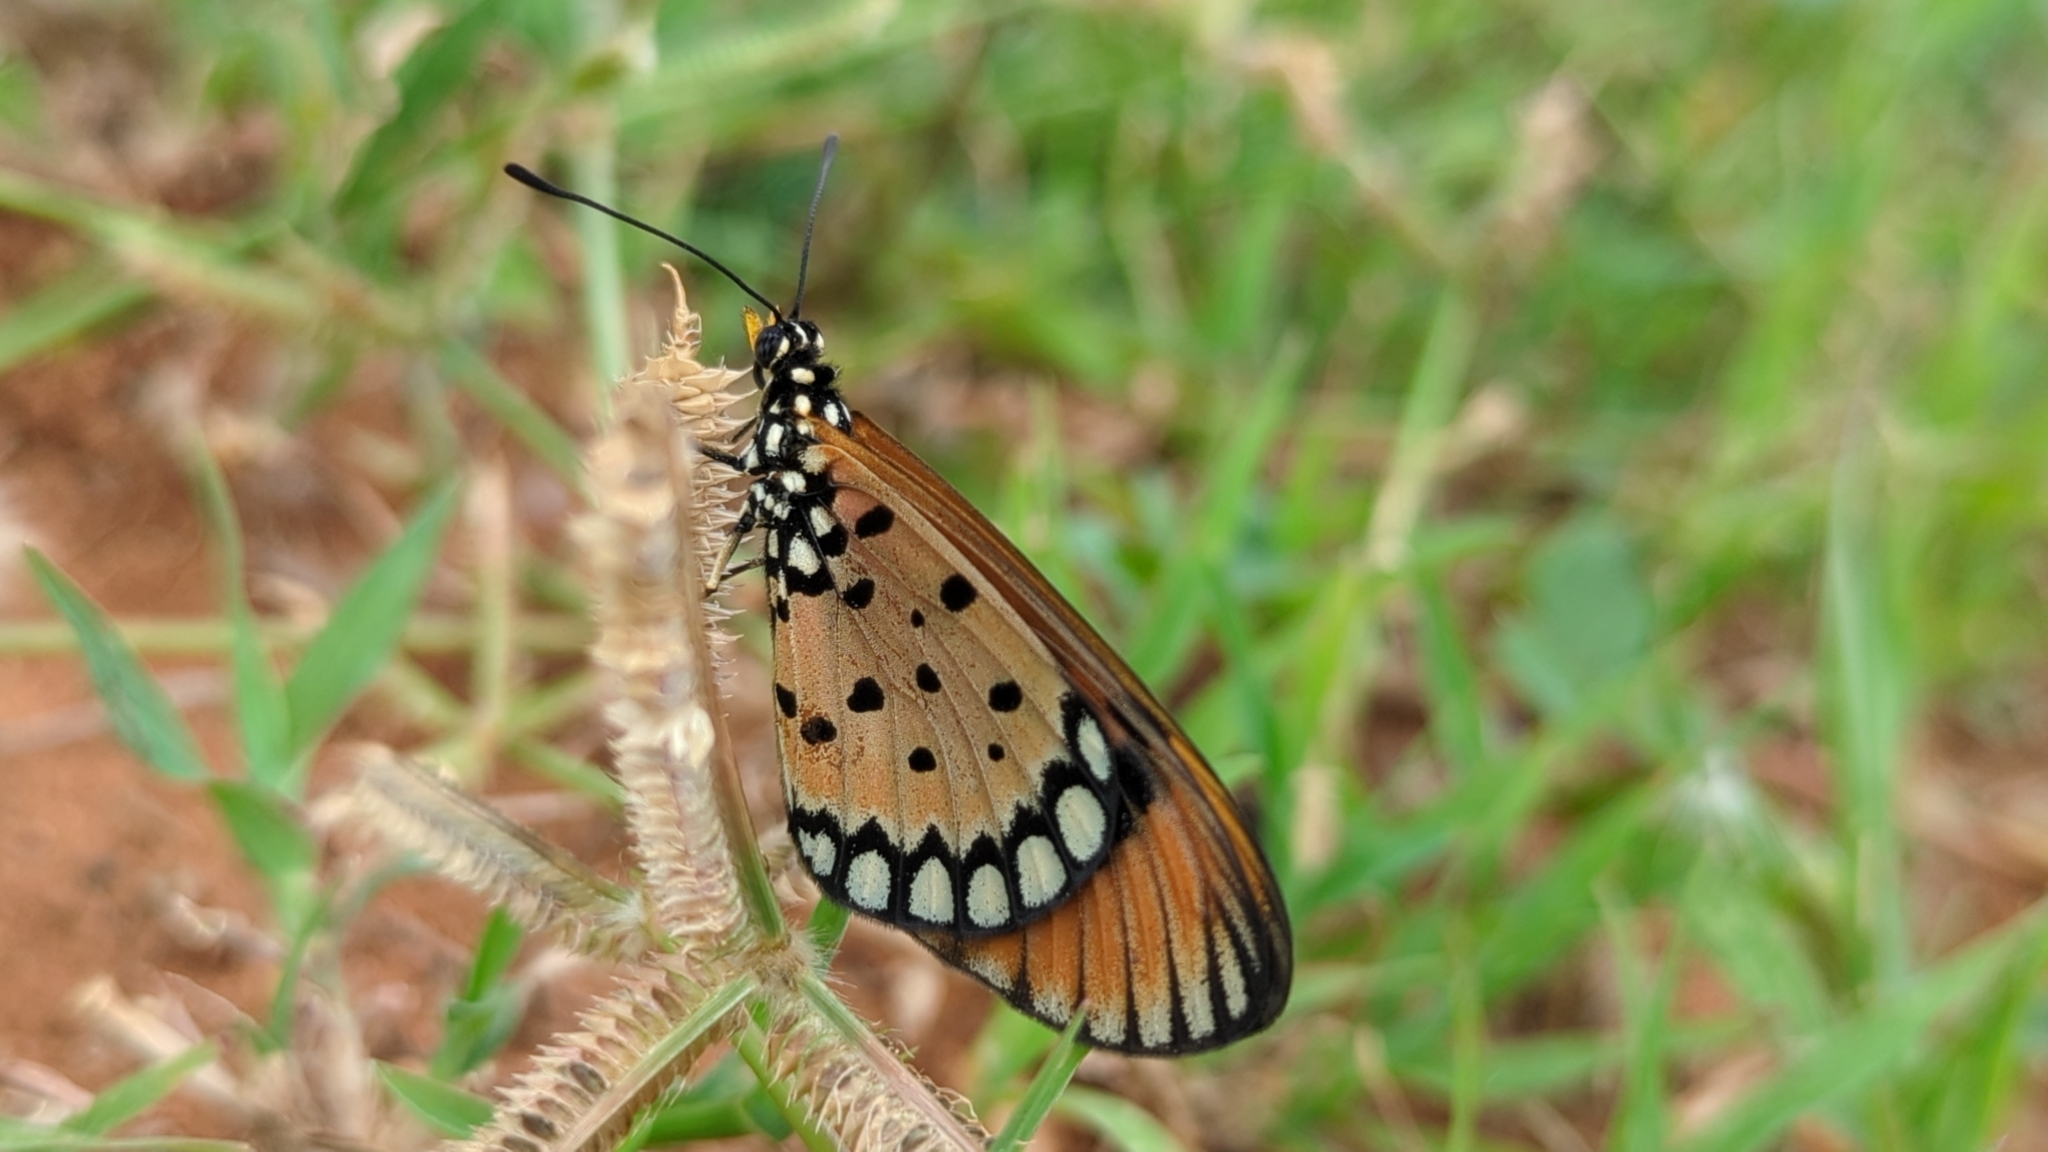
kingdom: Animalia
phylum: Arthropoda
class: Insecta
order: Lepidoptera
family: Nymphalidae
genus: Acraea
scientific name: Acraea terpsicore
